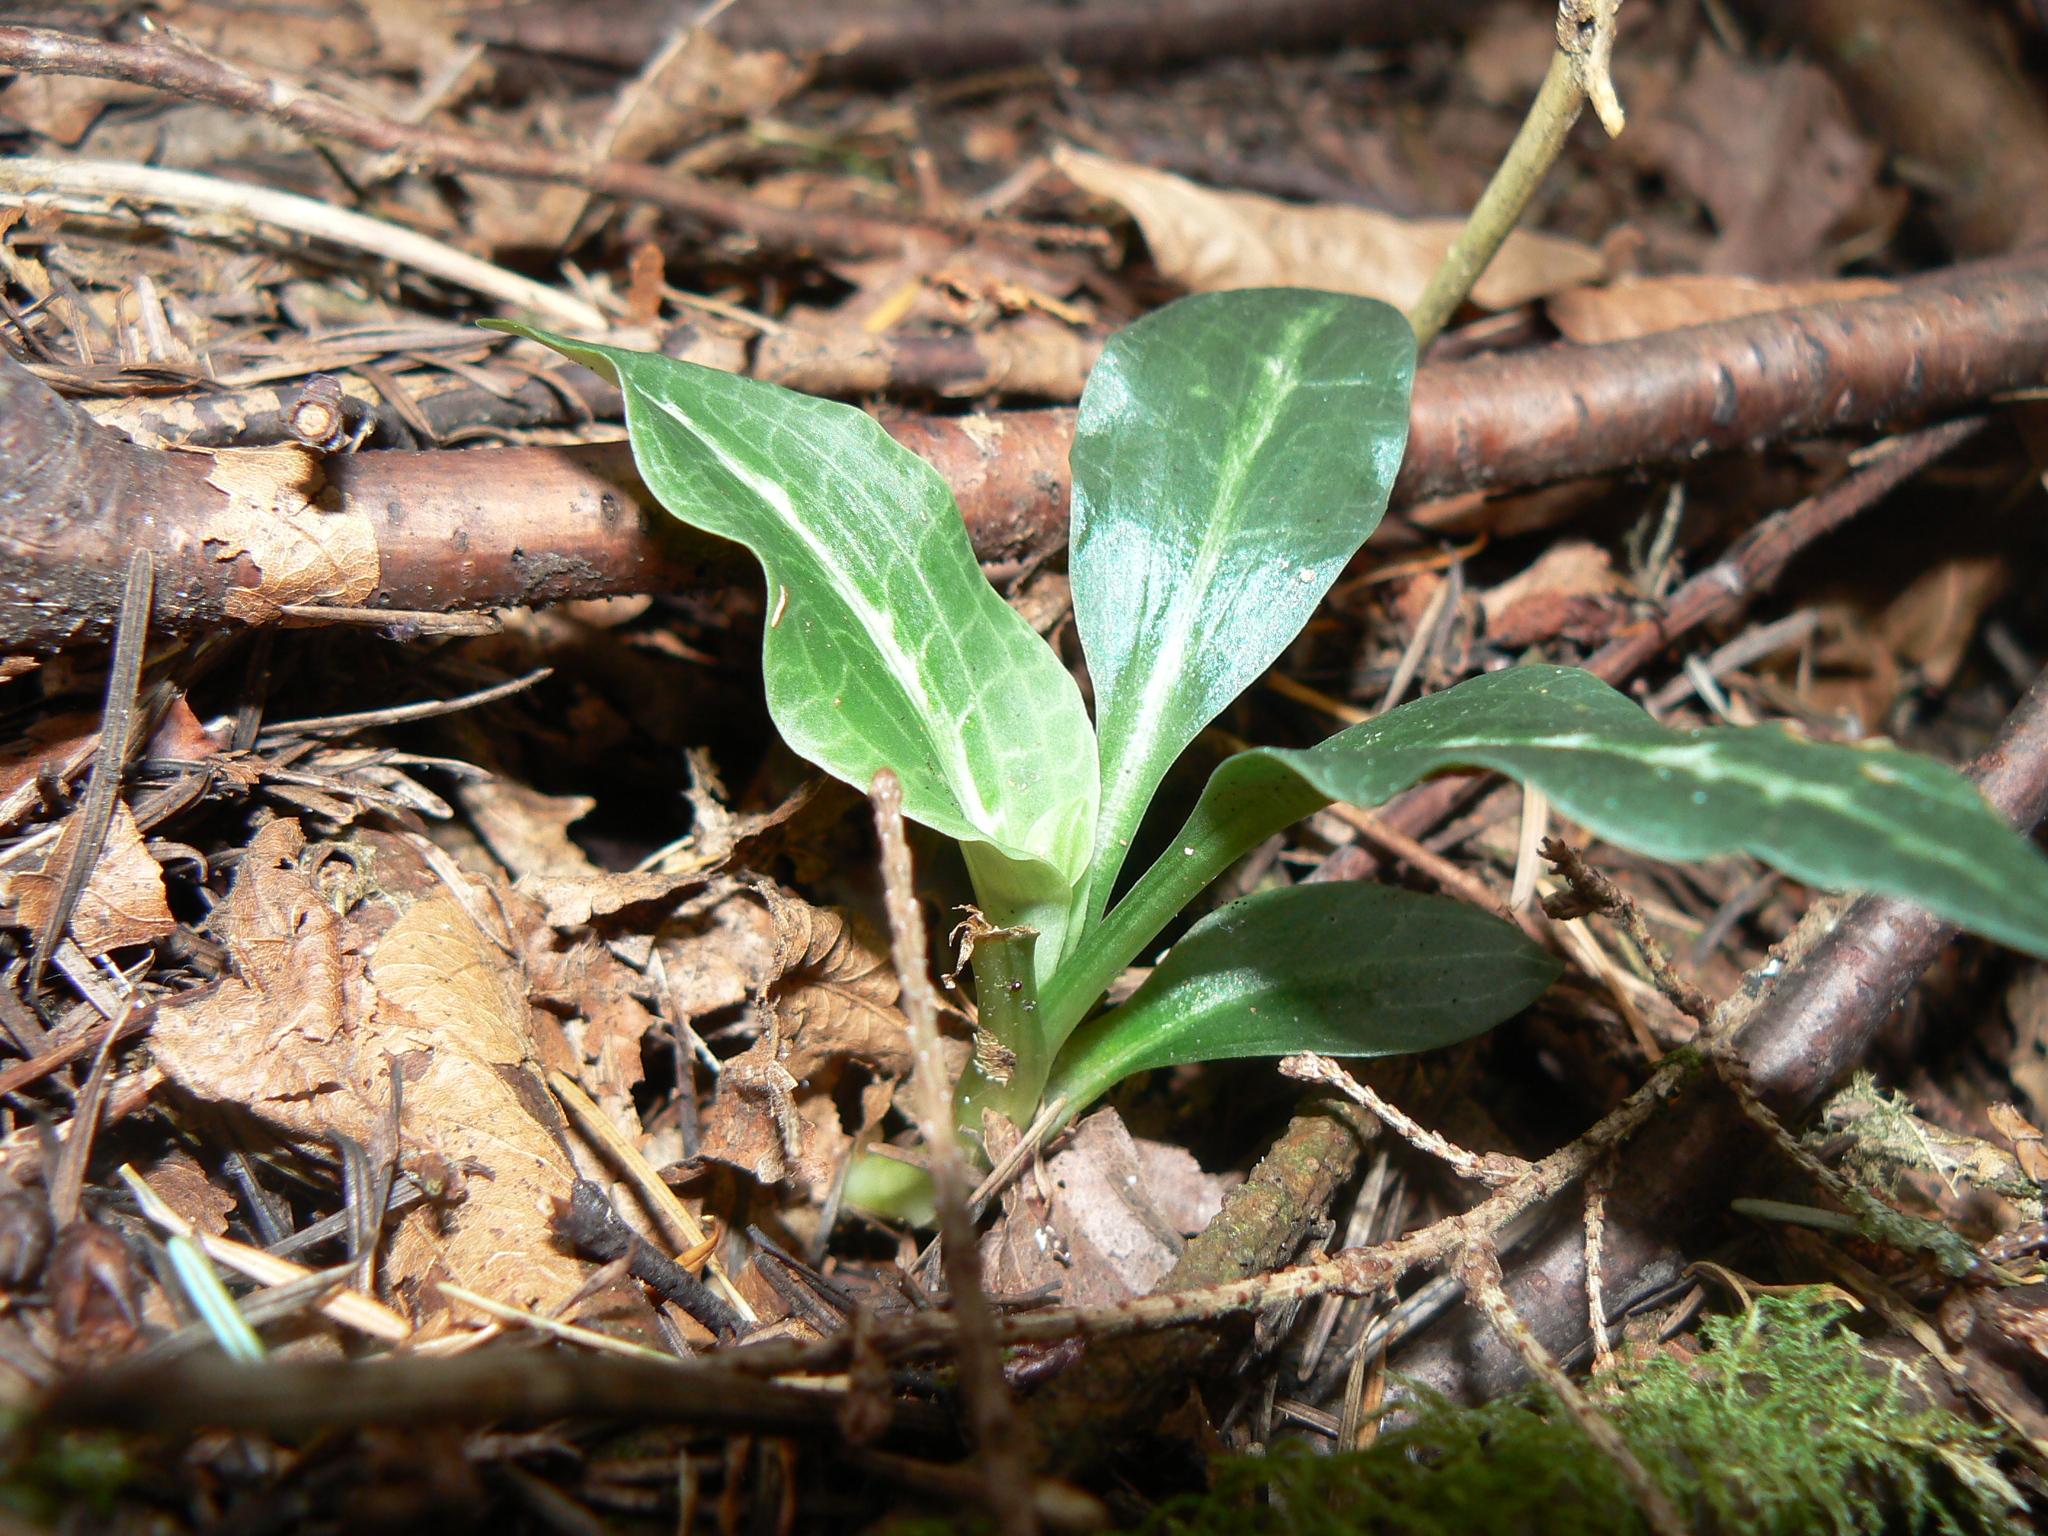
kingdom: Plantae
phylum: Tracheophyta
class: Liliopsida
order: Asparagales
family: Orchidaceae
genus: Goodyera
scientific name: Goodyera oblongifolia
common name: Giant rattlesnake-plantain
